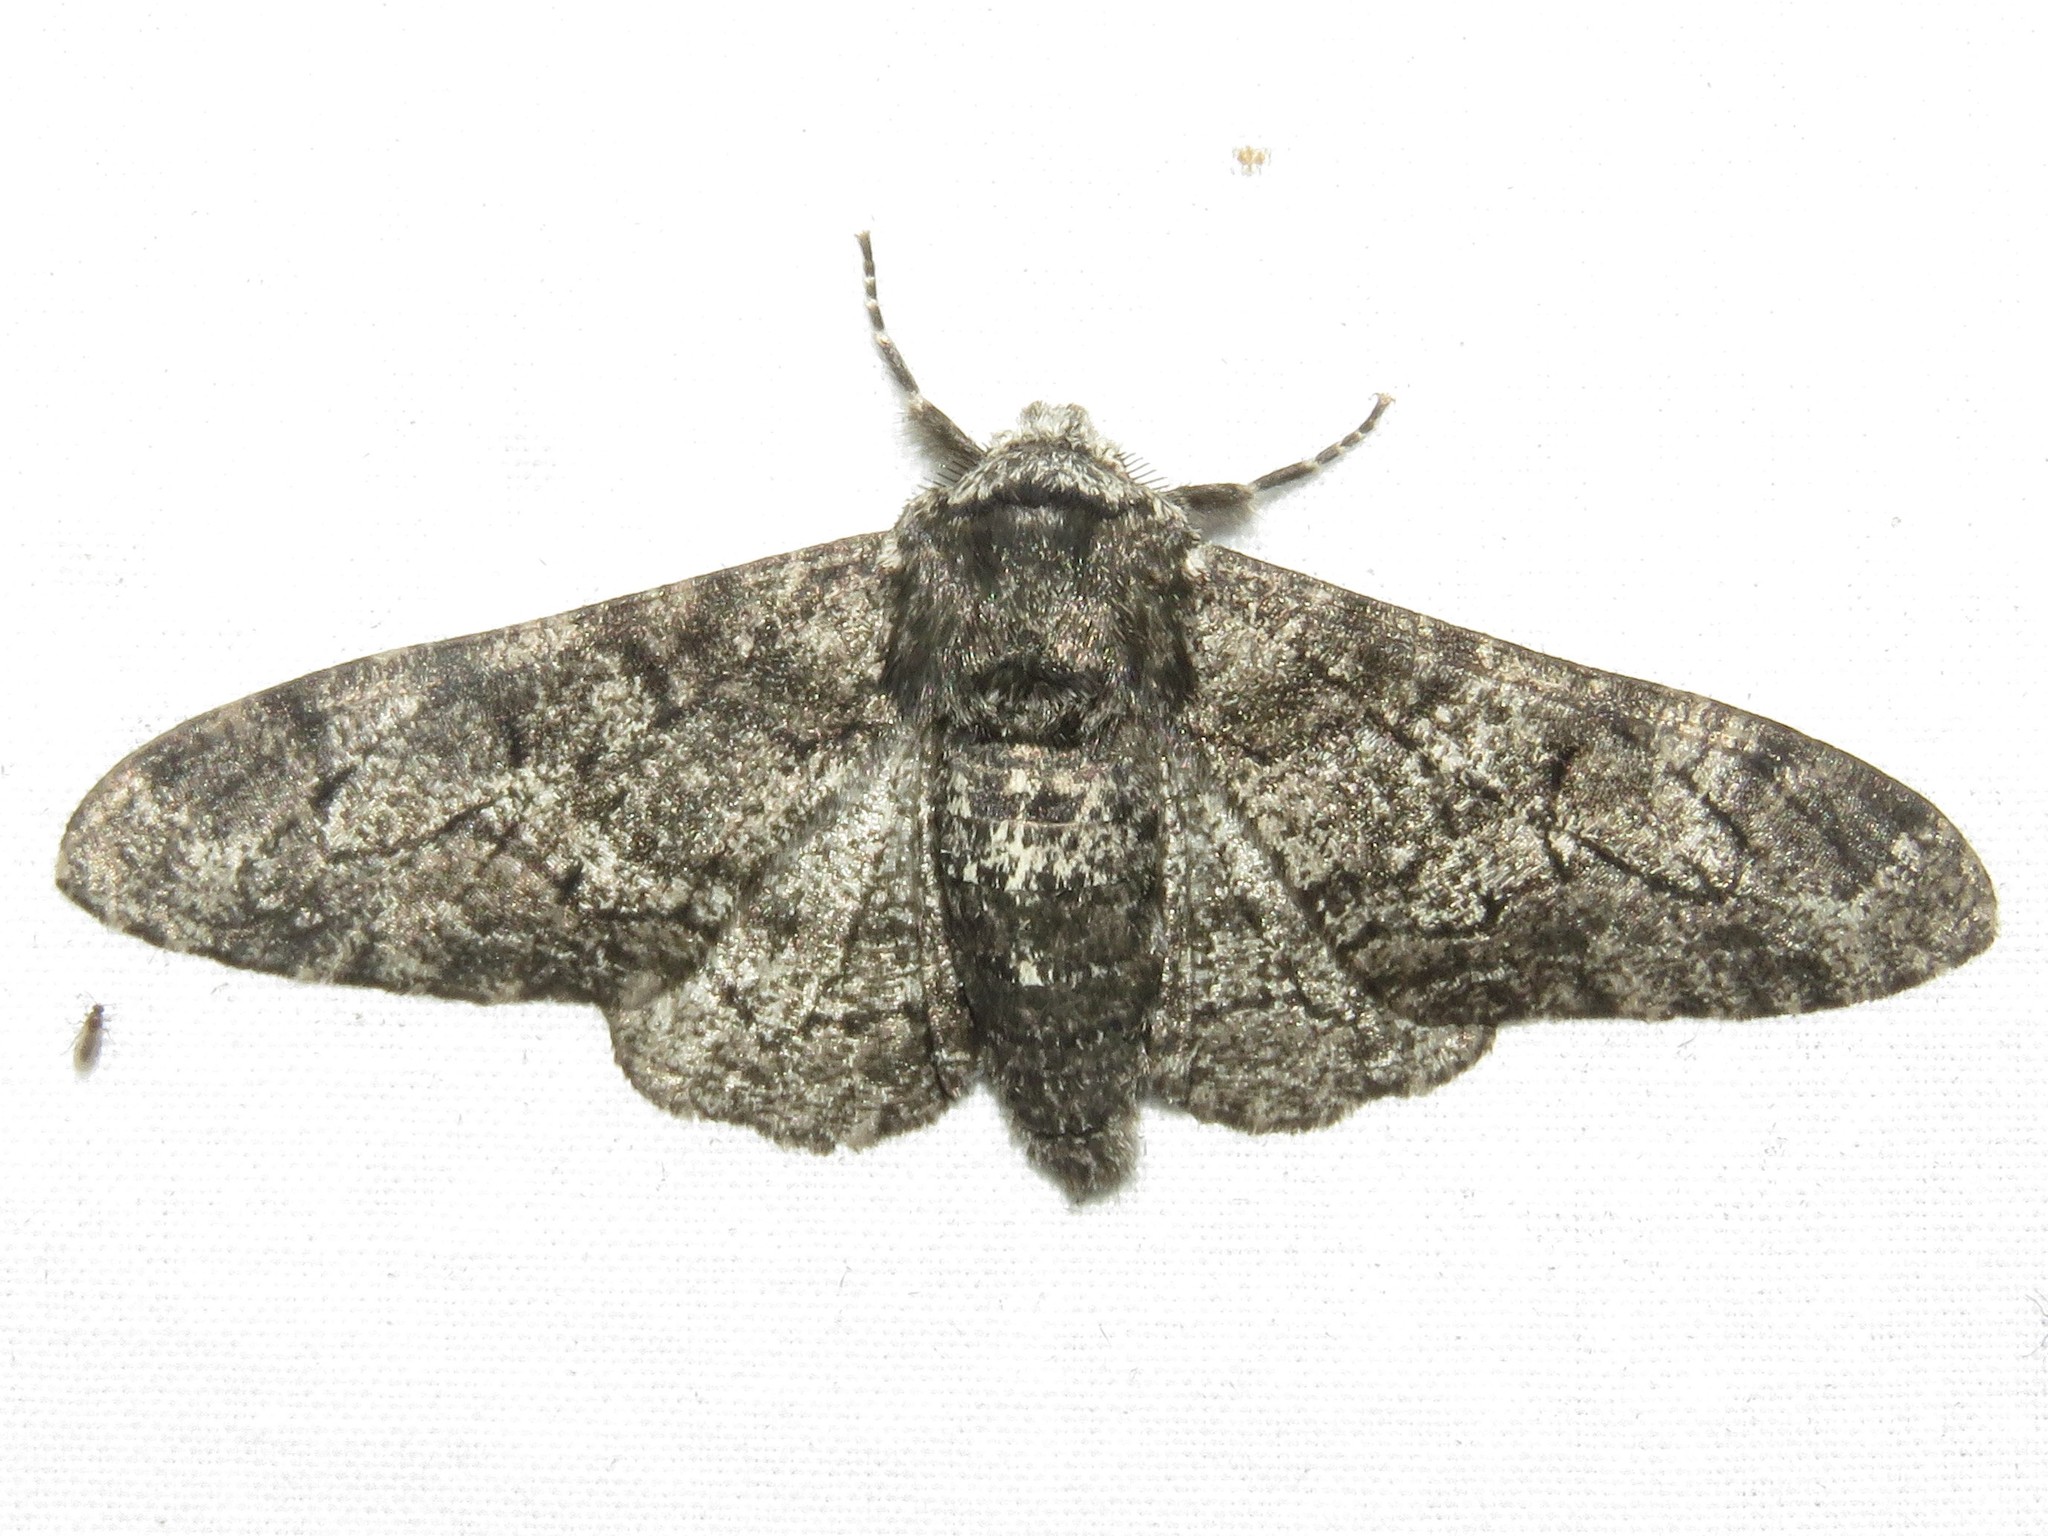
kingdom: Animalia
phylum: Arthropoda
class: Insecta
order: Lepidoptera
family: Geometridae
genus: Biston
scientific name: Biston betularia
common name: Peppered moth
